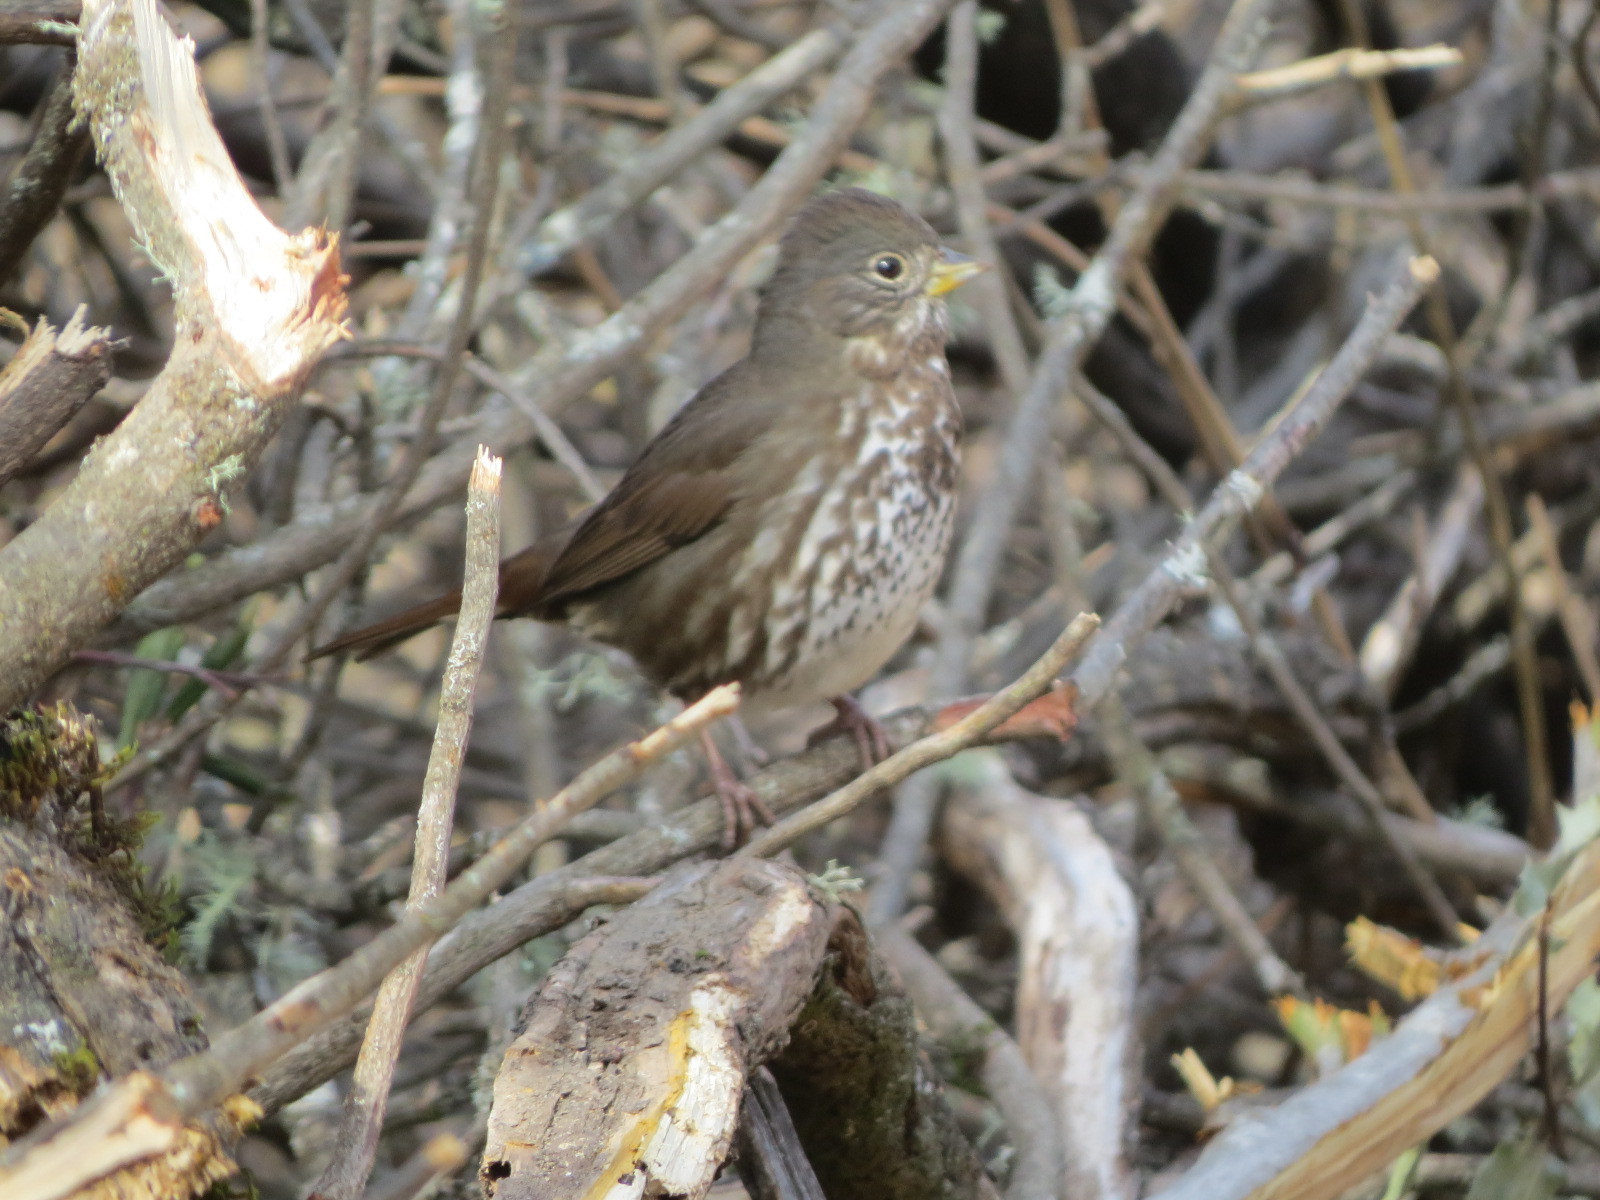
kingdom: Animalia
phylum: Chordata
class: Aves
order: Passeriformes
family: Passerellidae
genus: Passerella
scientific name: Passerella iliaca
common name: Fox sparrow
